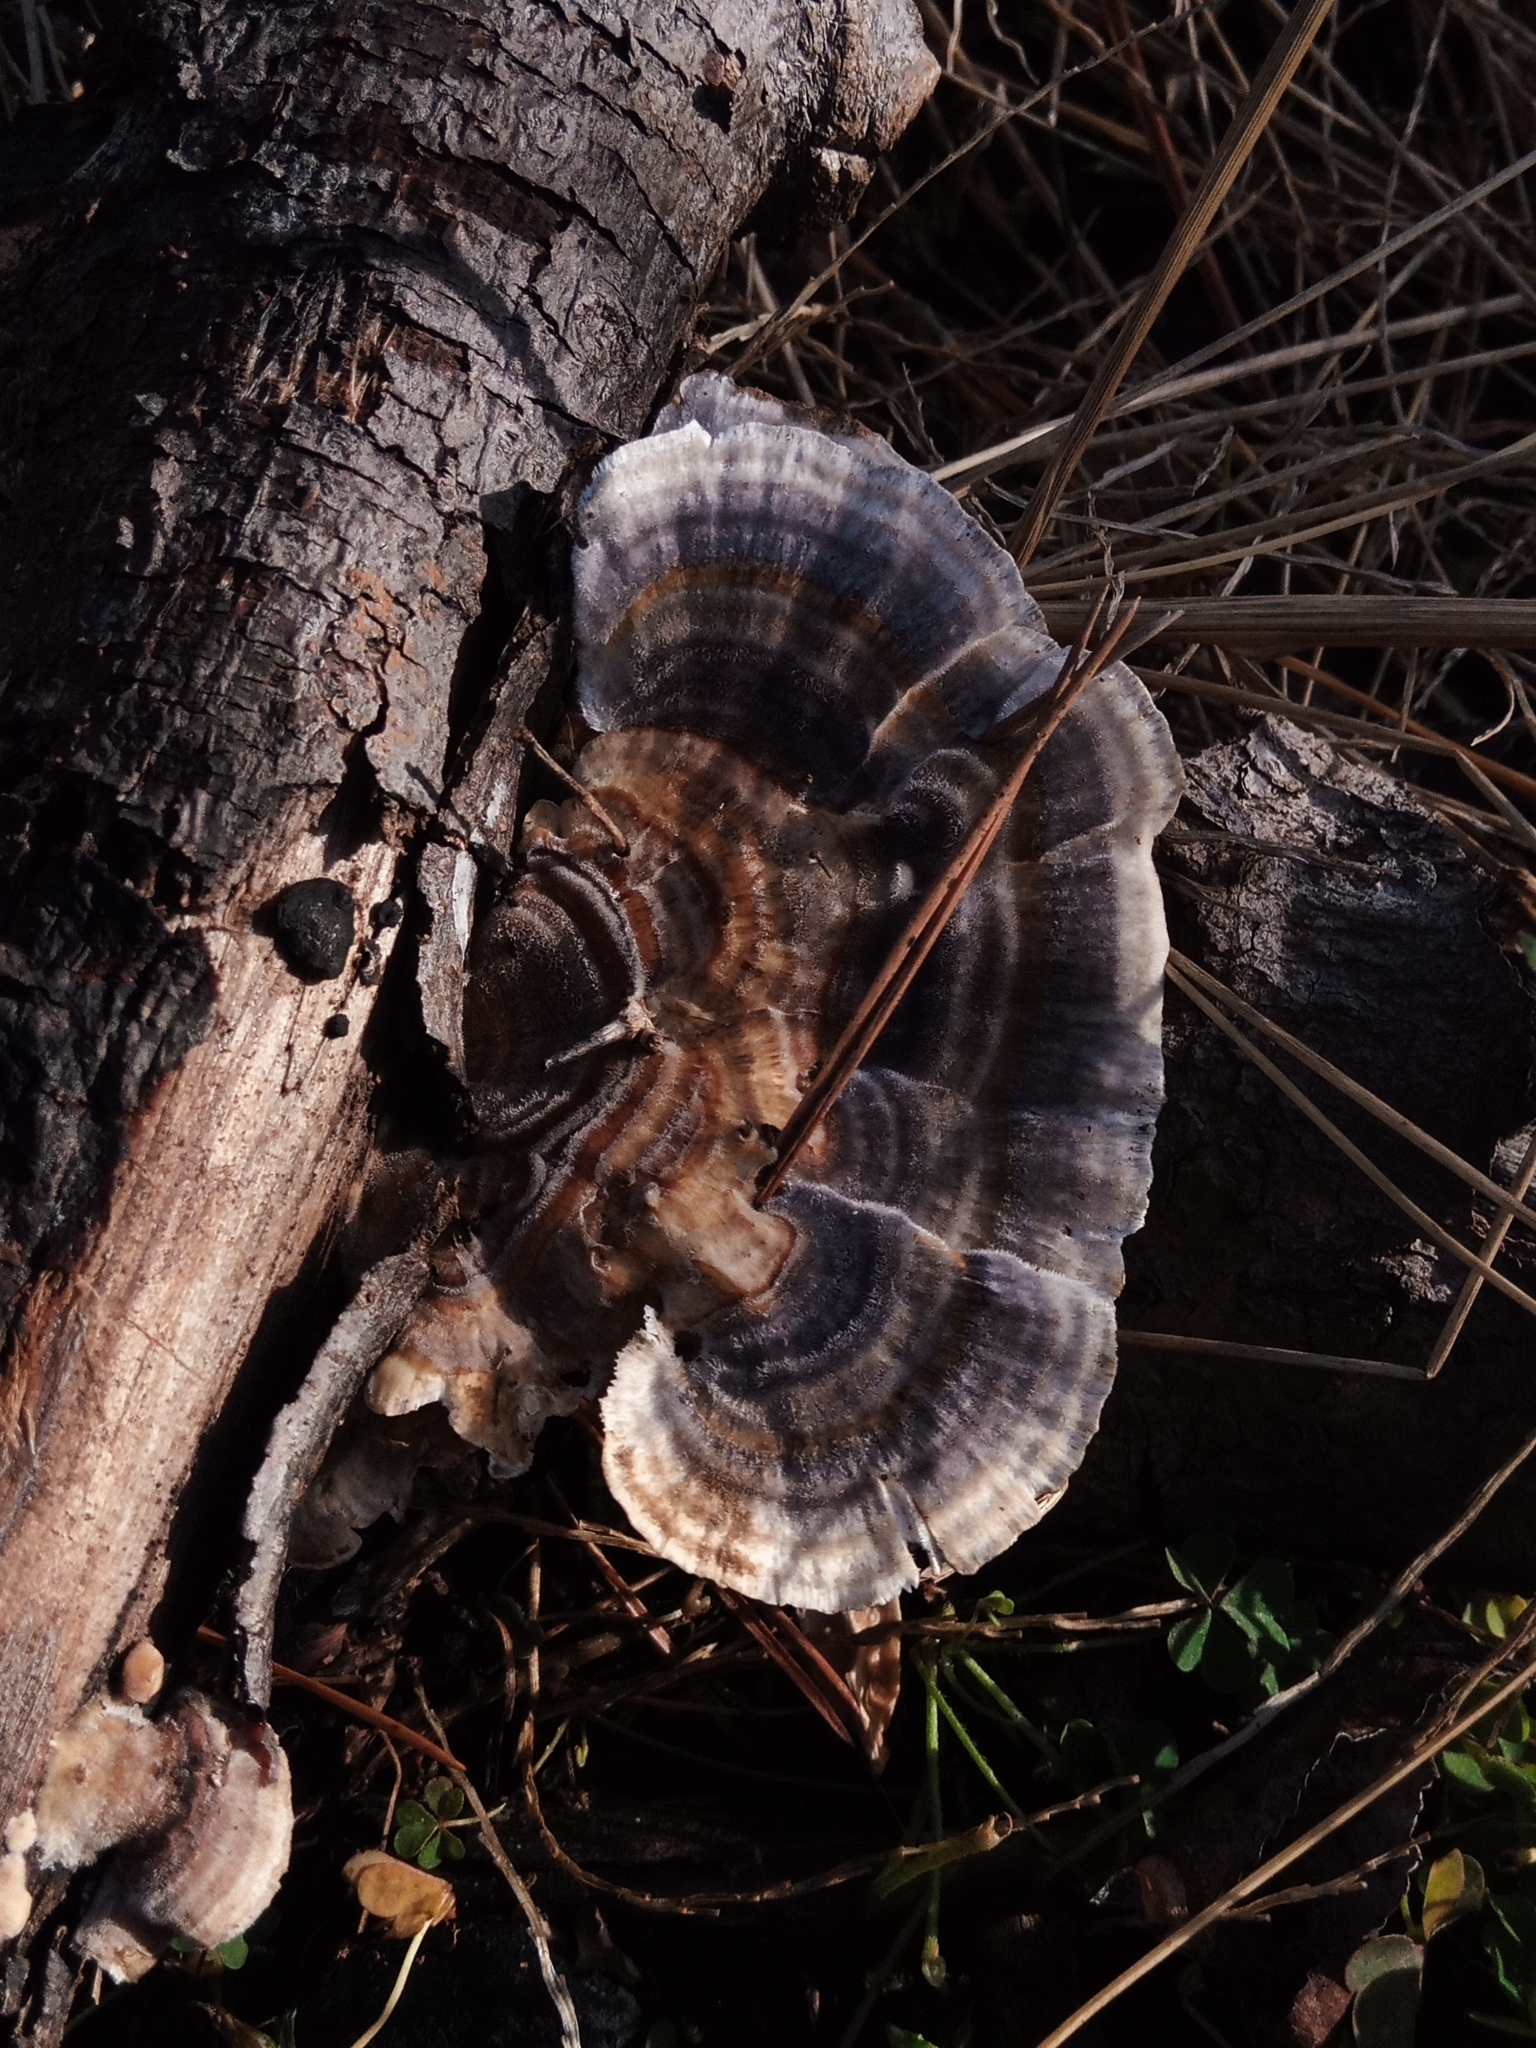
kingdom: Fungi
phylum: Basidiomycota
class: Agaricomycetes
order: Polyporales
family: Polyporaceae
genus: Trametes
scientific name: Trametes versicolor
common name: Turkeytail
